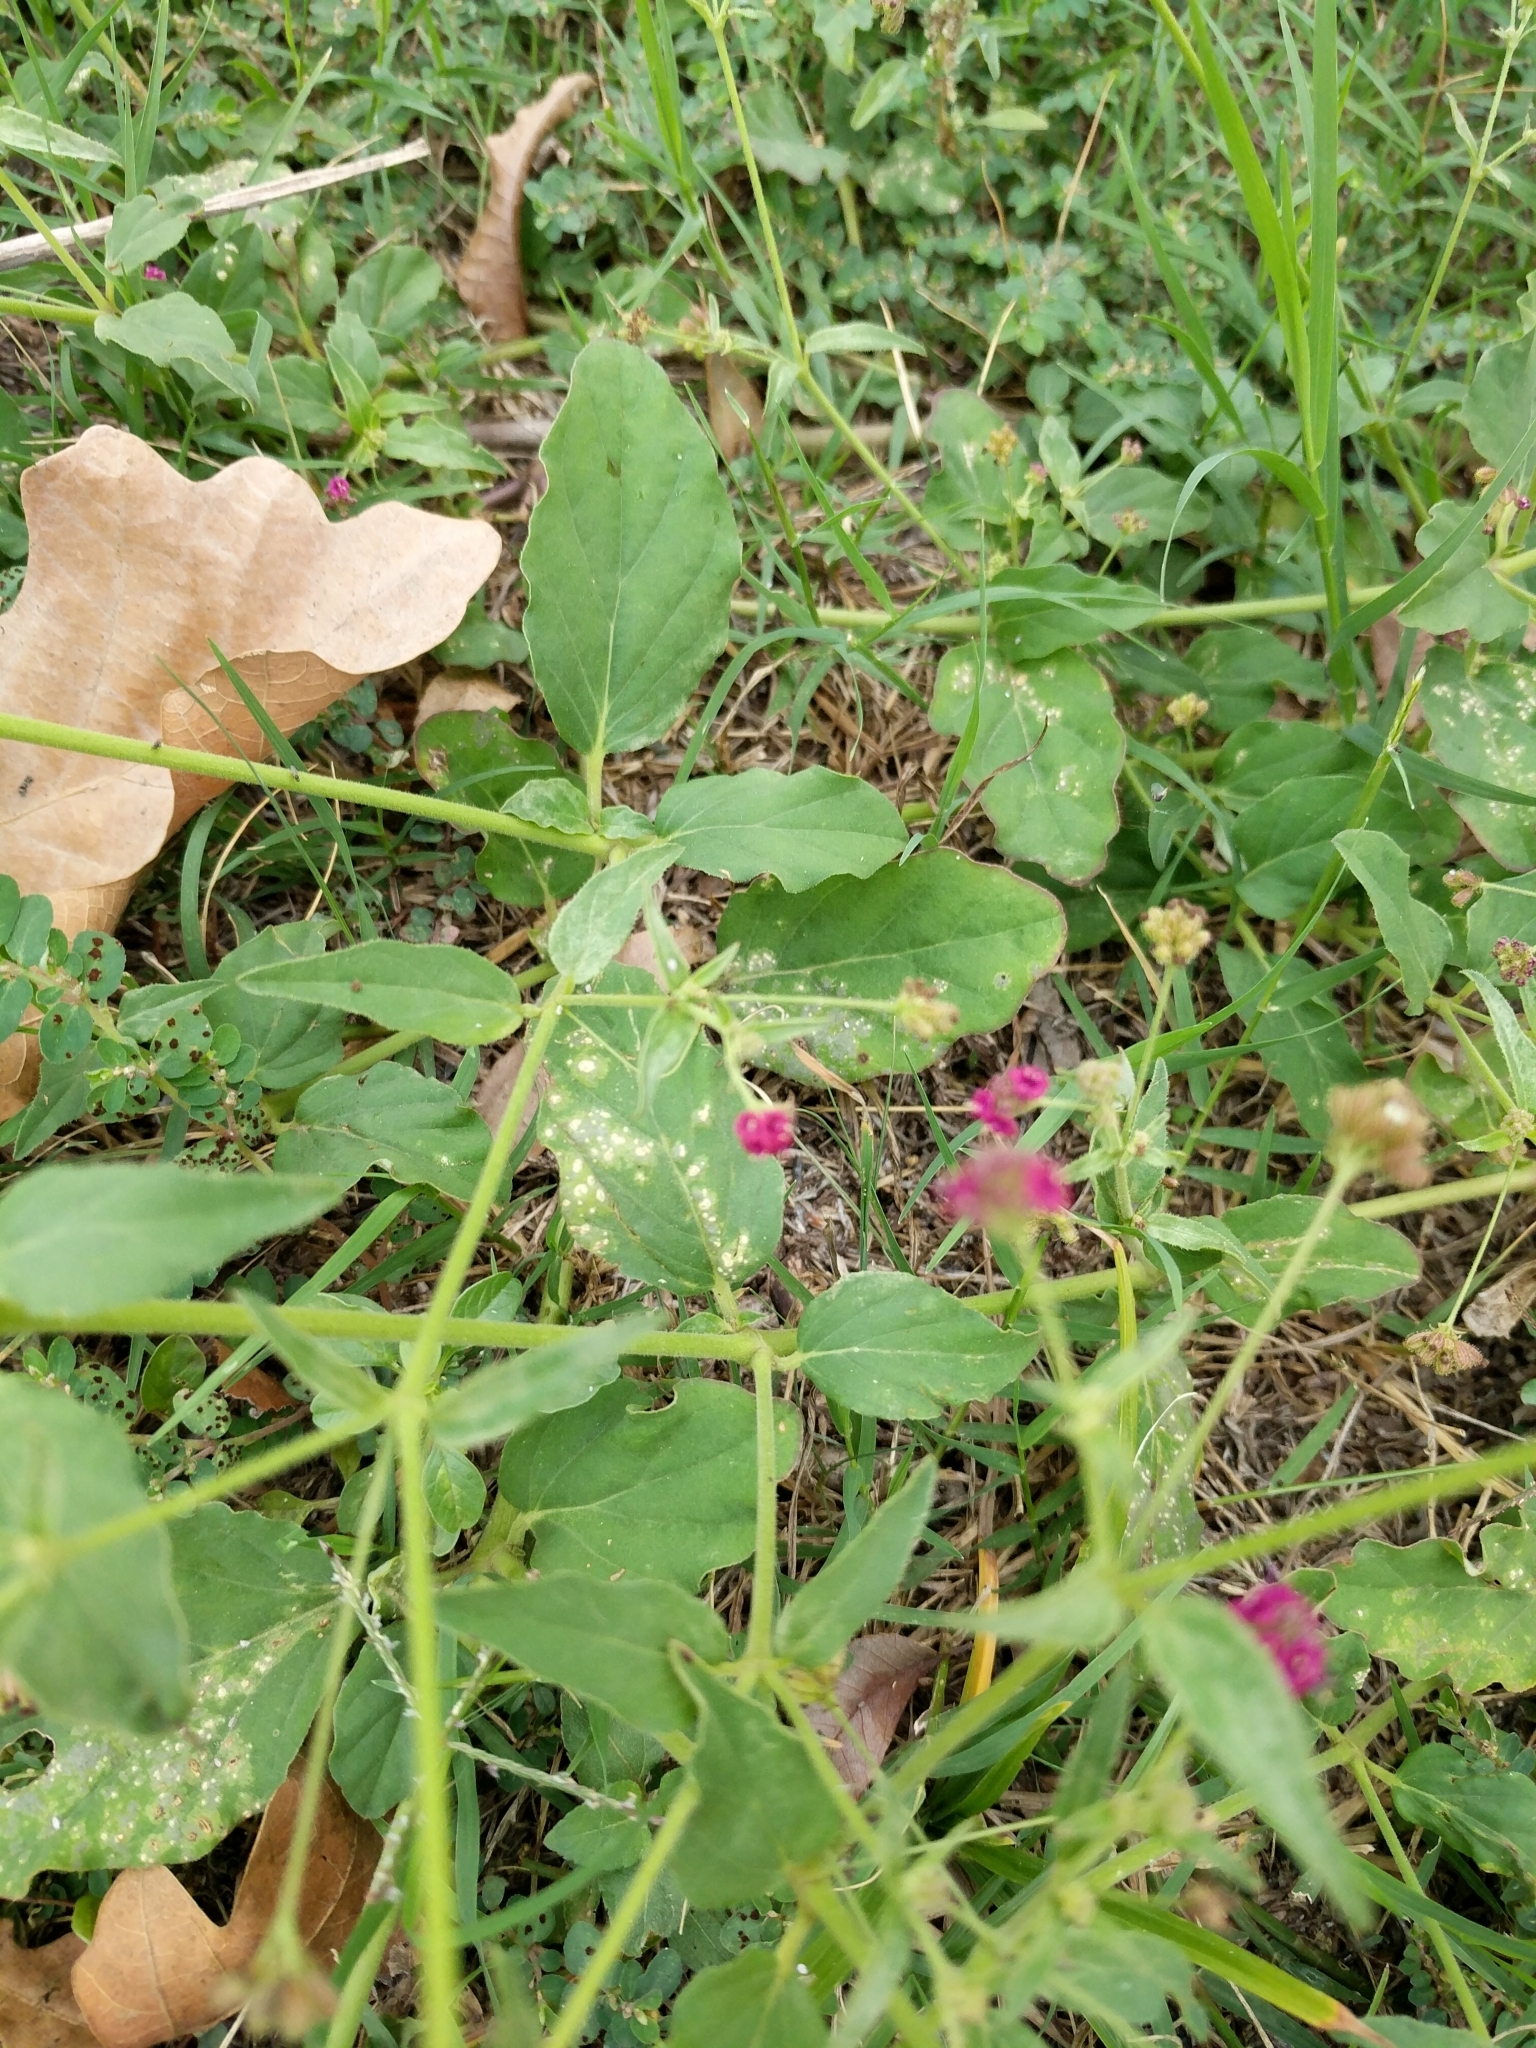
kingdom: Plantae
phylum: Tracheophyta
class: Magnoliopsida
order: Caryophyllales
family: Nyctaginaceae
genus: Boerhavia
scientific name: Boerhavia coccinea
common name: Scarlet spiderling
